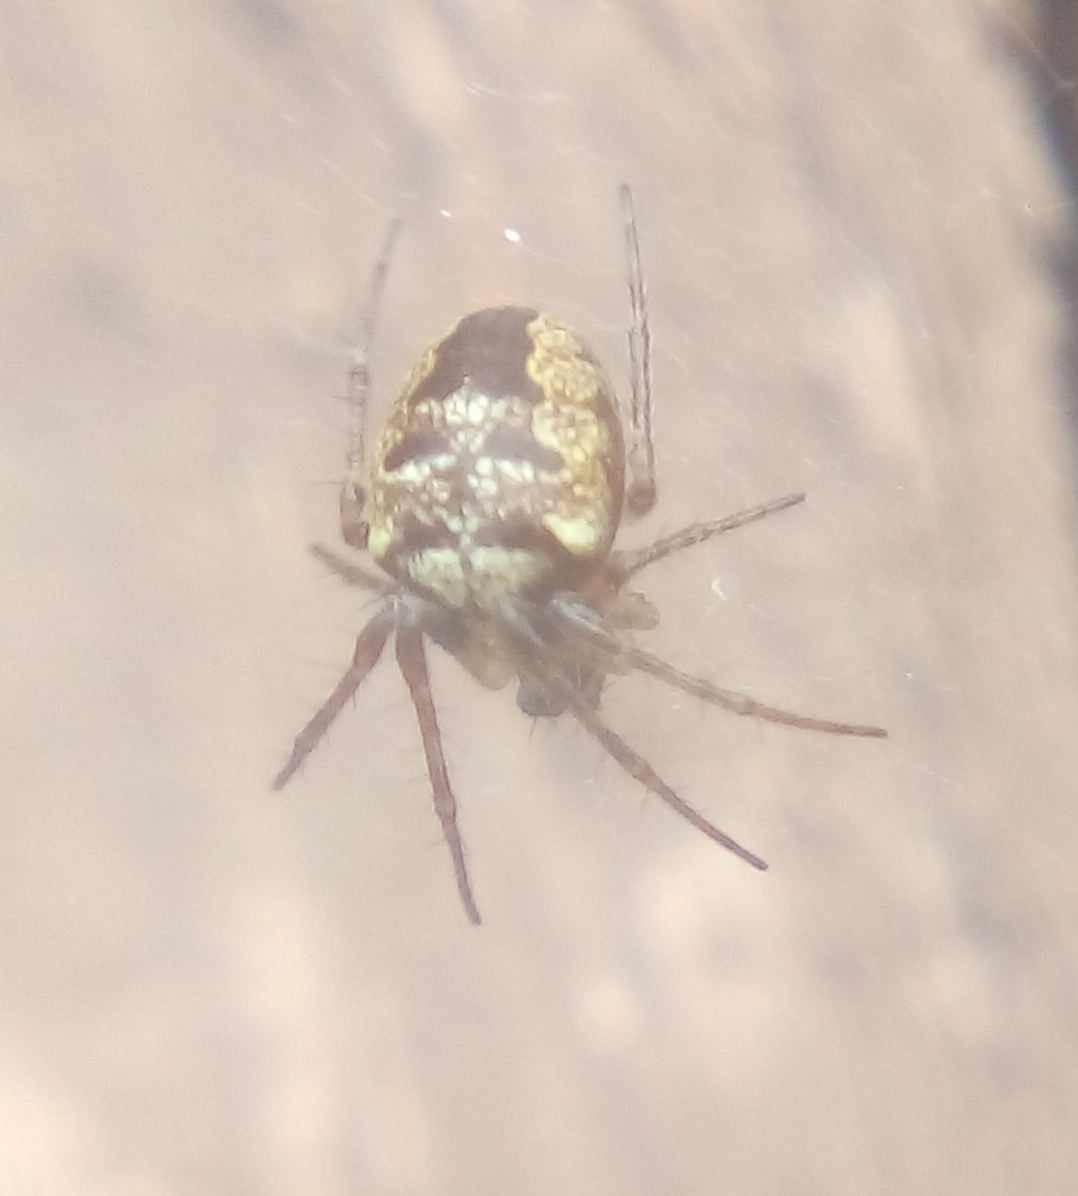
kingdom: Animalia
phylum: Arthropoda
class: Arachnida
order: Araneae
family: Araneidae
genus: Zilla
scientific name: Zilla diodia
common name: Zilla diodia
